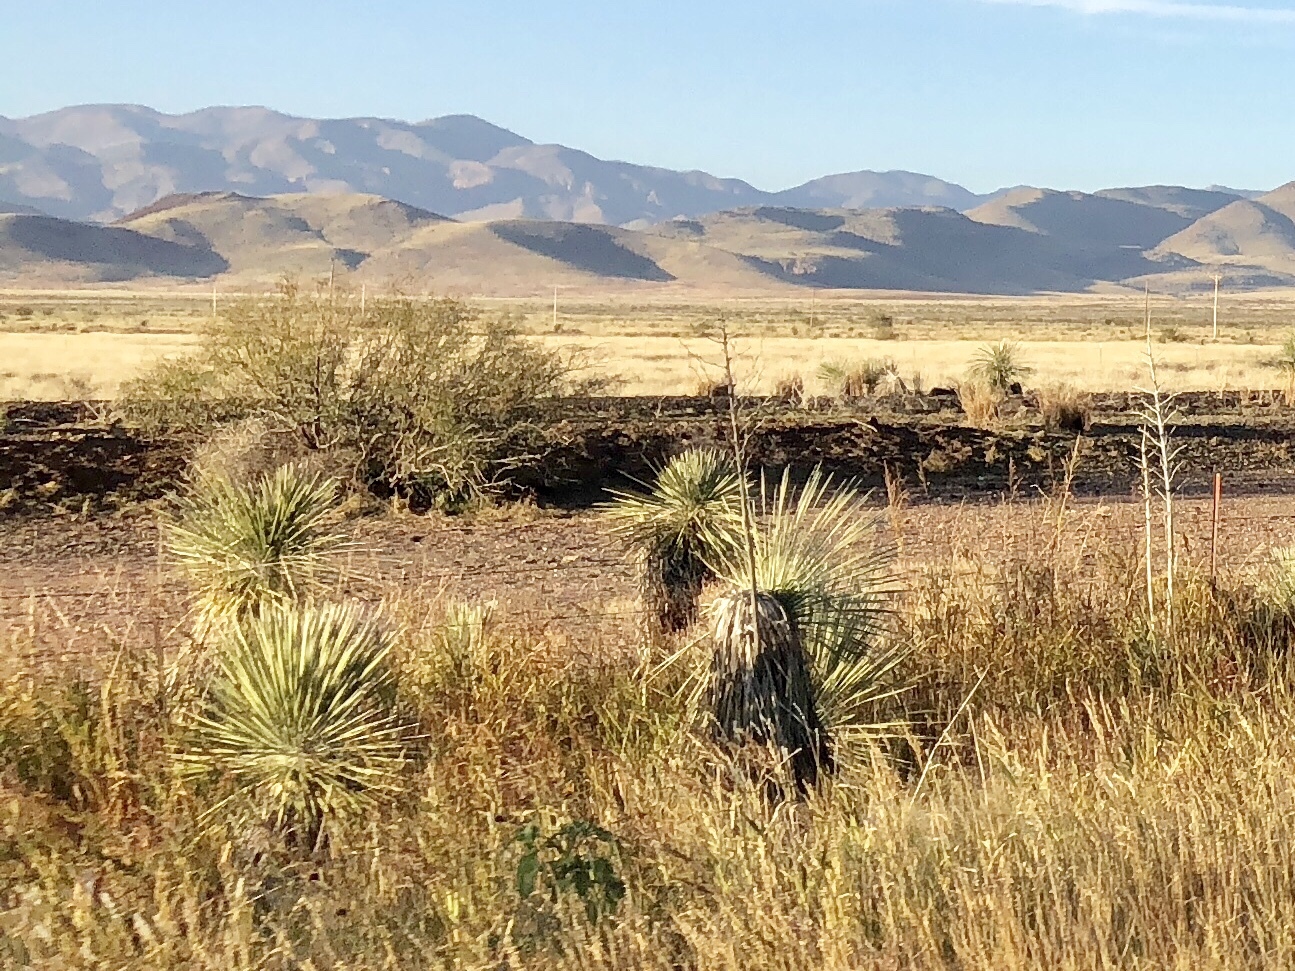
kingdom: Plantae
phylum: Tracheophyta
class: Liliopsida
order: Asparagales
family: Asparagaceae
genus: Yucca
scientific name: Yucca elata
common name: Palmella
